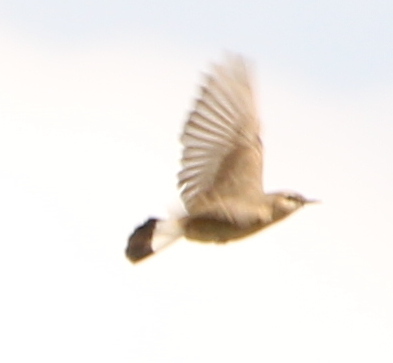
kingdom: Animalia
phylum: Chordata
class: Aves
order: Passeriformes
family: Muscicapidae
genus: Oenanthe
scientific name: Oenanthe isabellina
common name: Isabelline wheatear
